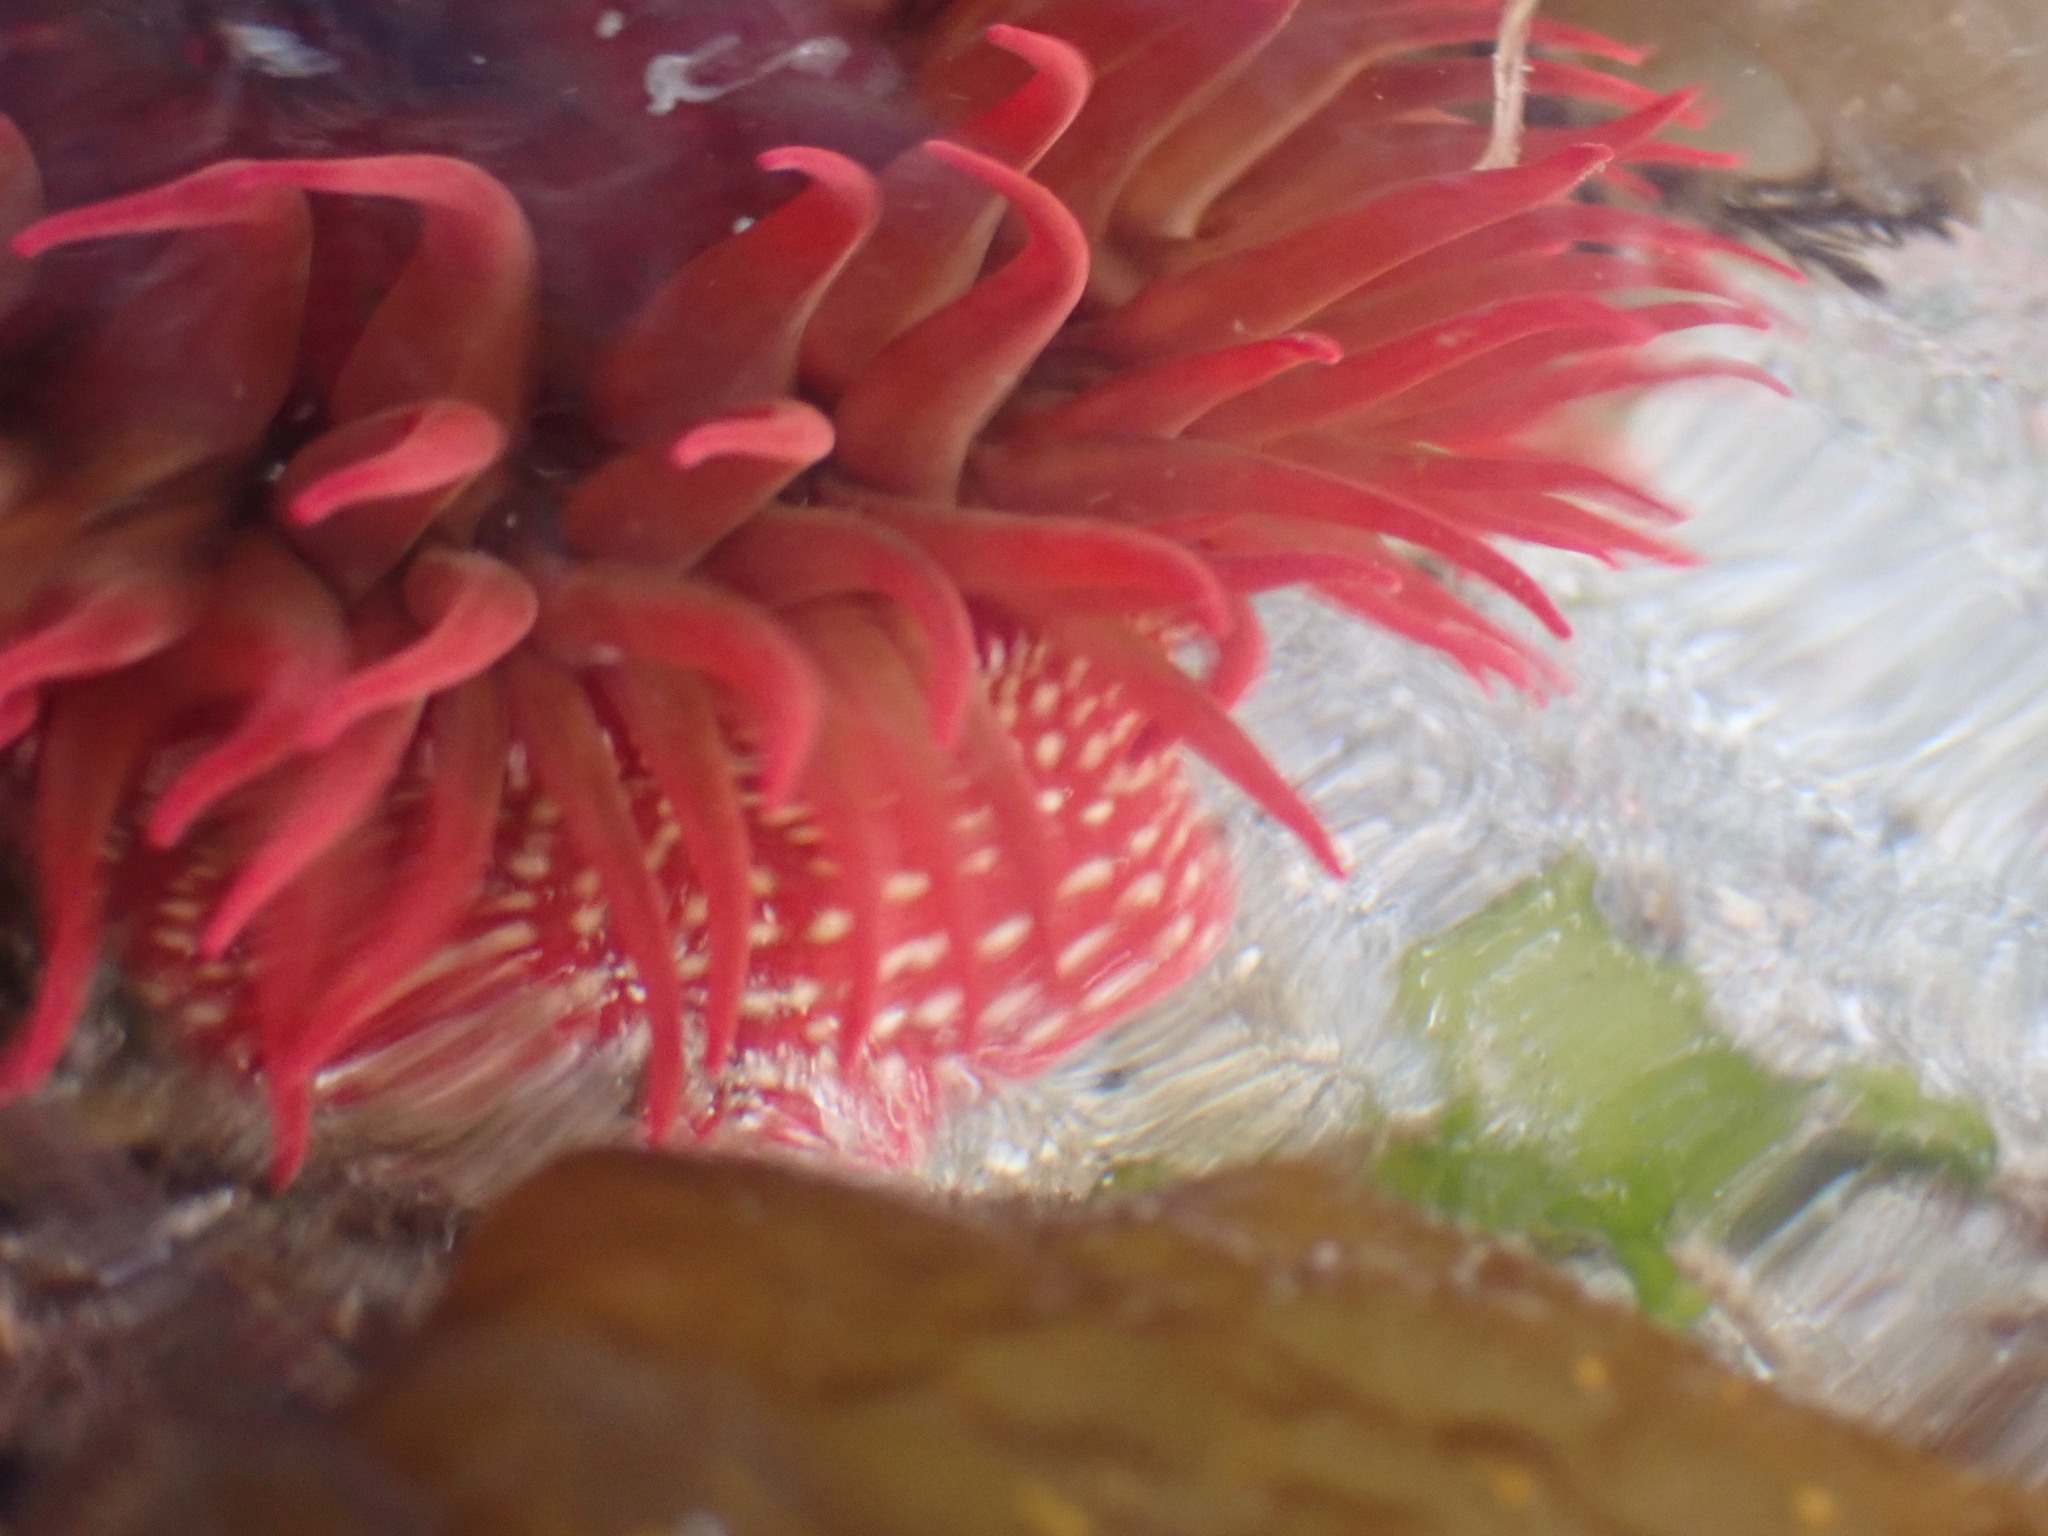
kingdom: Animalia
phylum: Cnidaria
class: Anthozoa
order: Actiniaria
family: Actiniidae
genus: Cribrinopsis
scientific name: Cribrinopsis albopunctata
